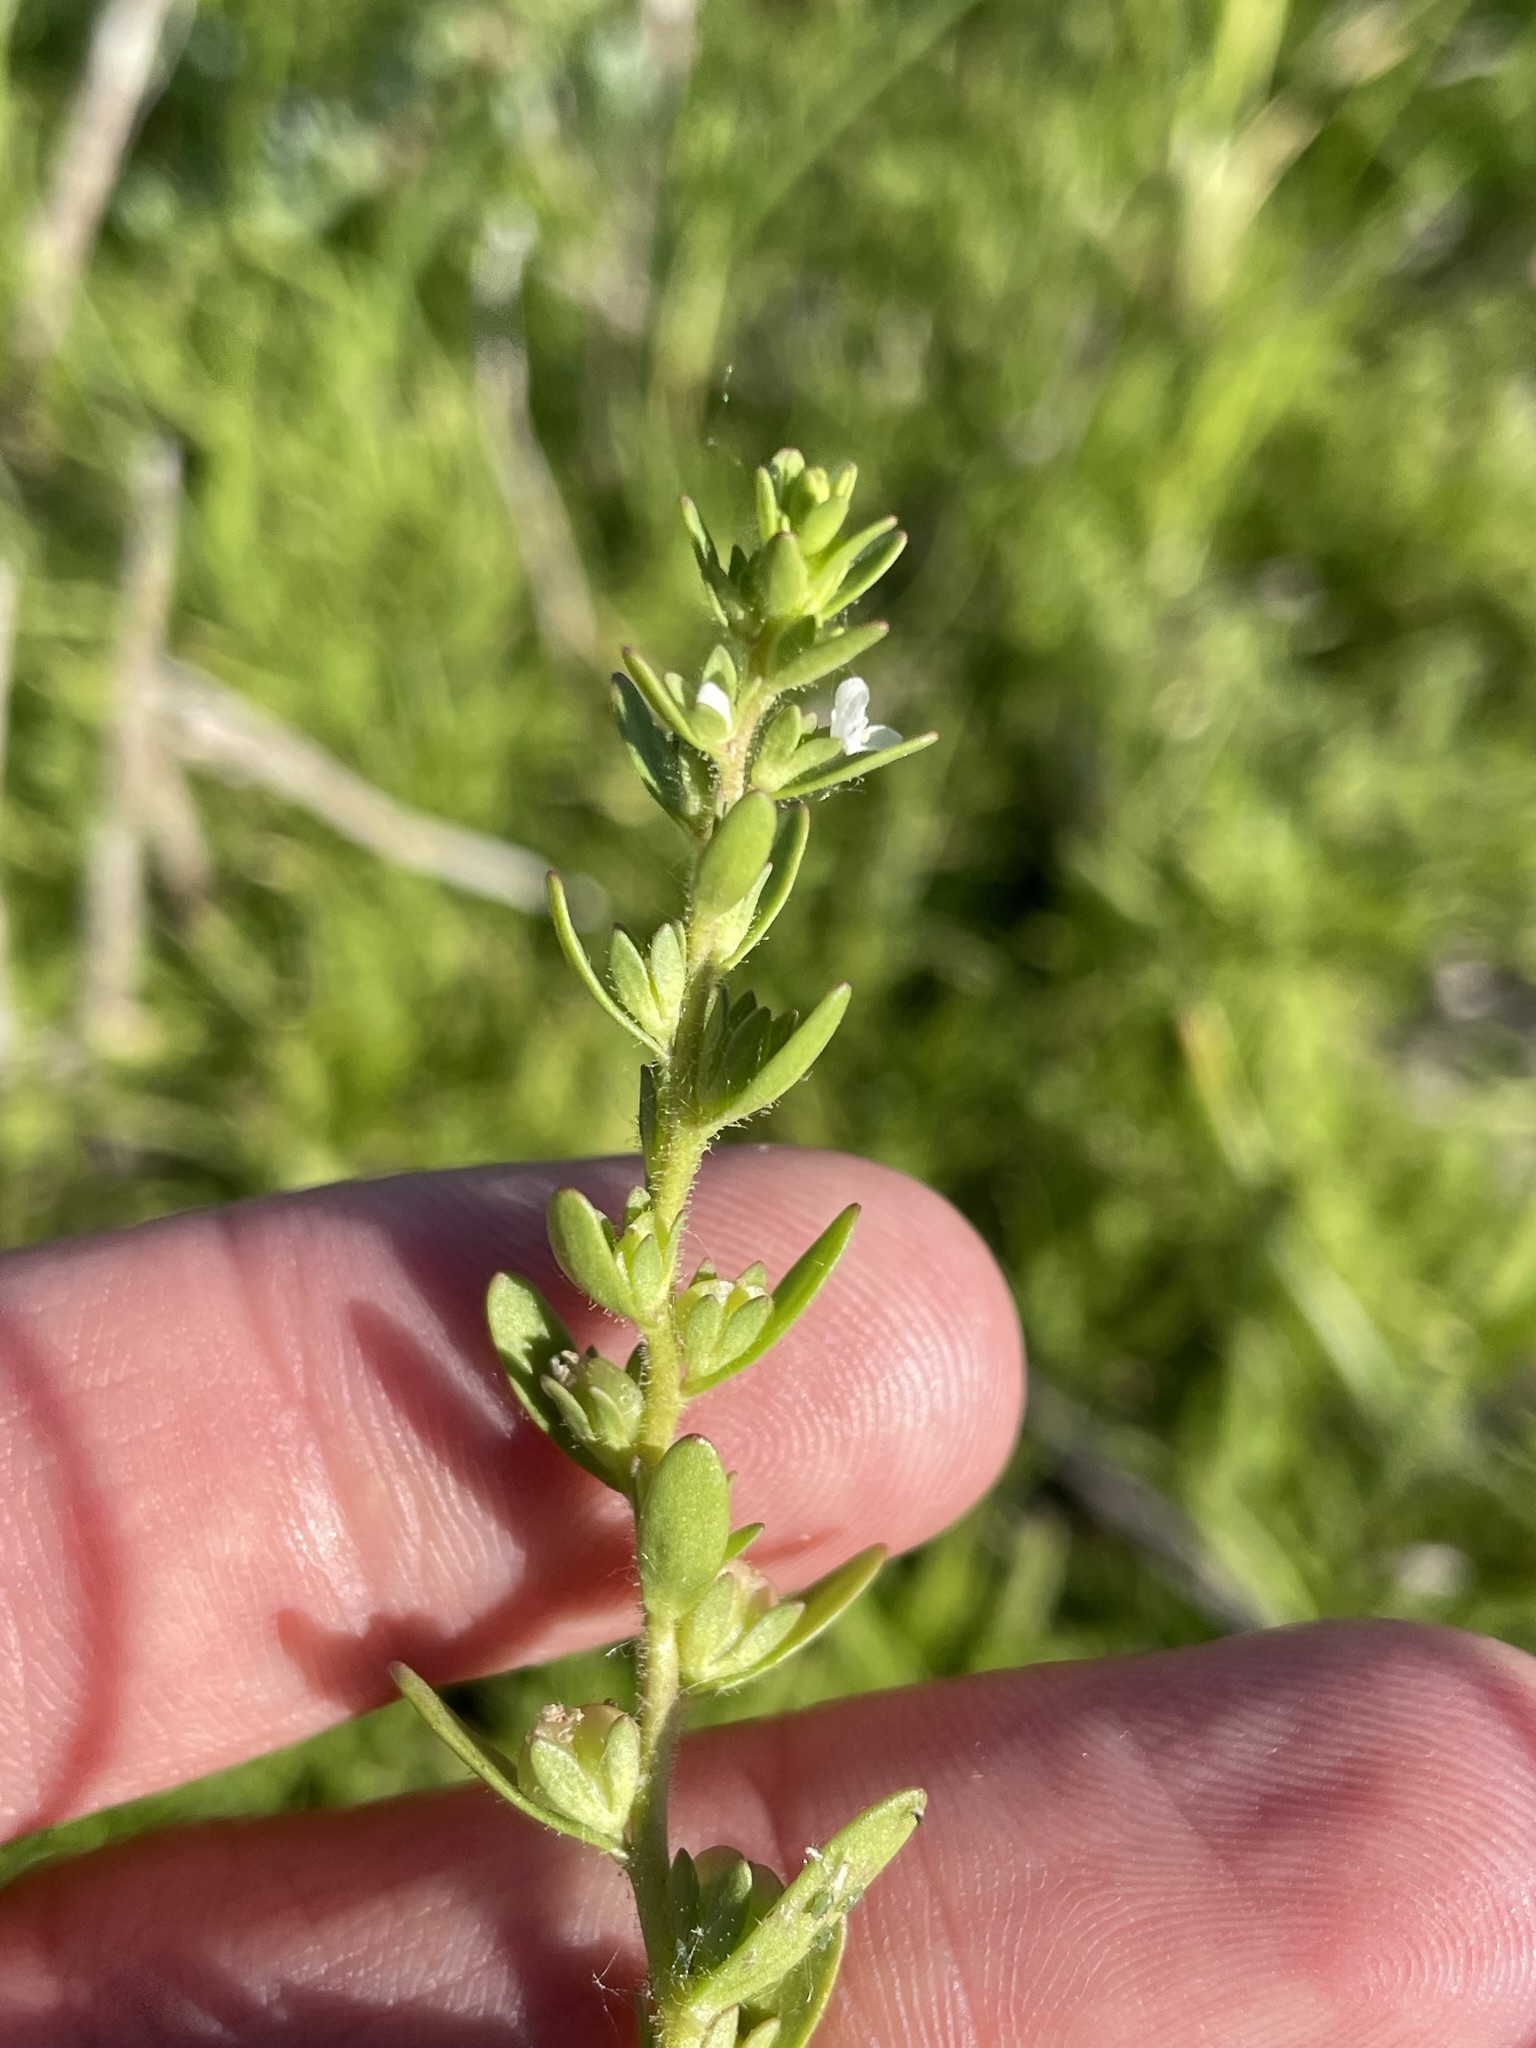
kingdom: Plantae
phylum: Tracheophyta
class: Magnoliopsida
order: Lamiales
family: Plantaginaceae
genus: Veronica
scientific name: Veronica peregrina
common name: Neckweed
